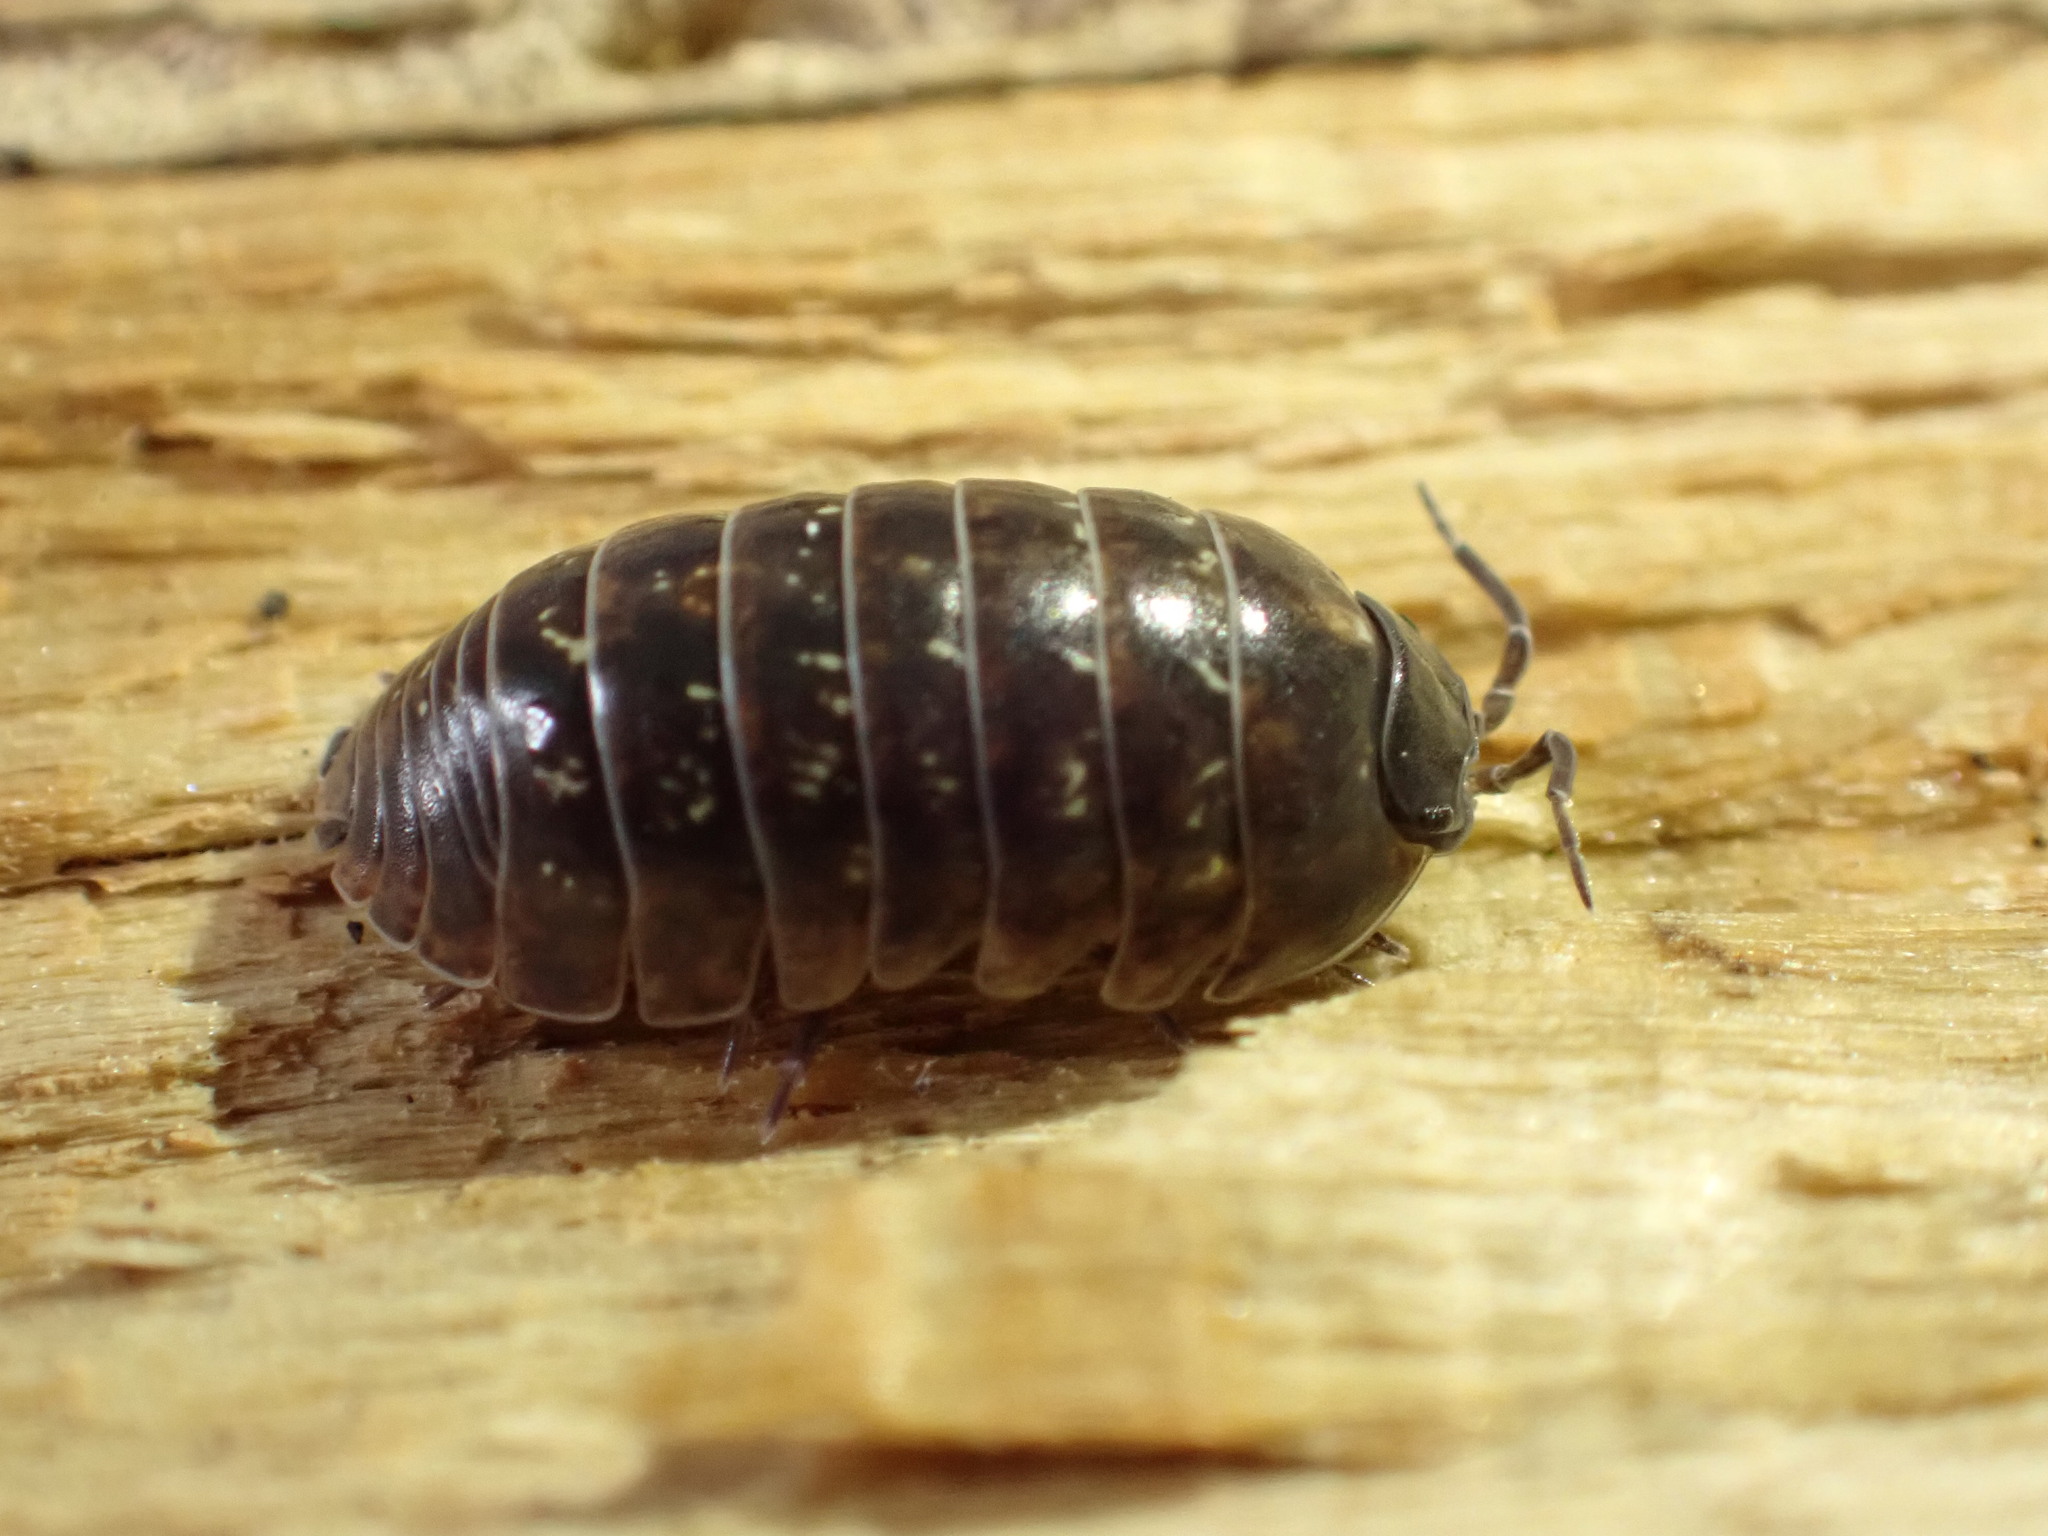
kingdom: Animalia
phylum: Arthropoda
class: Malacostraca
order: Isopoda
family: Armadillidiidae
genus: Armadillidium
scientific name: Armadillidium vulgare
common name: Common pill woodlouse
